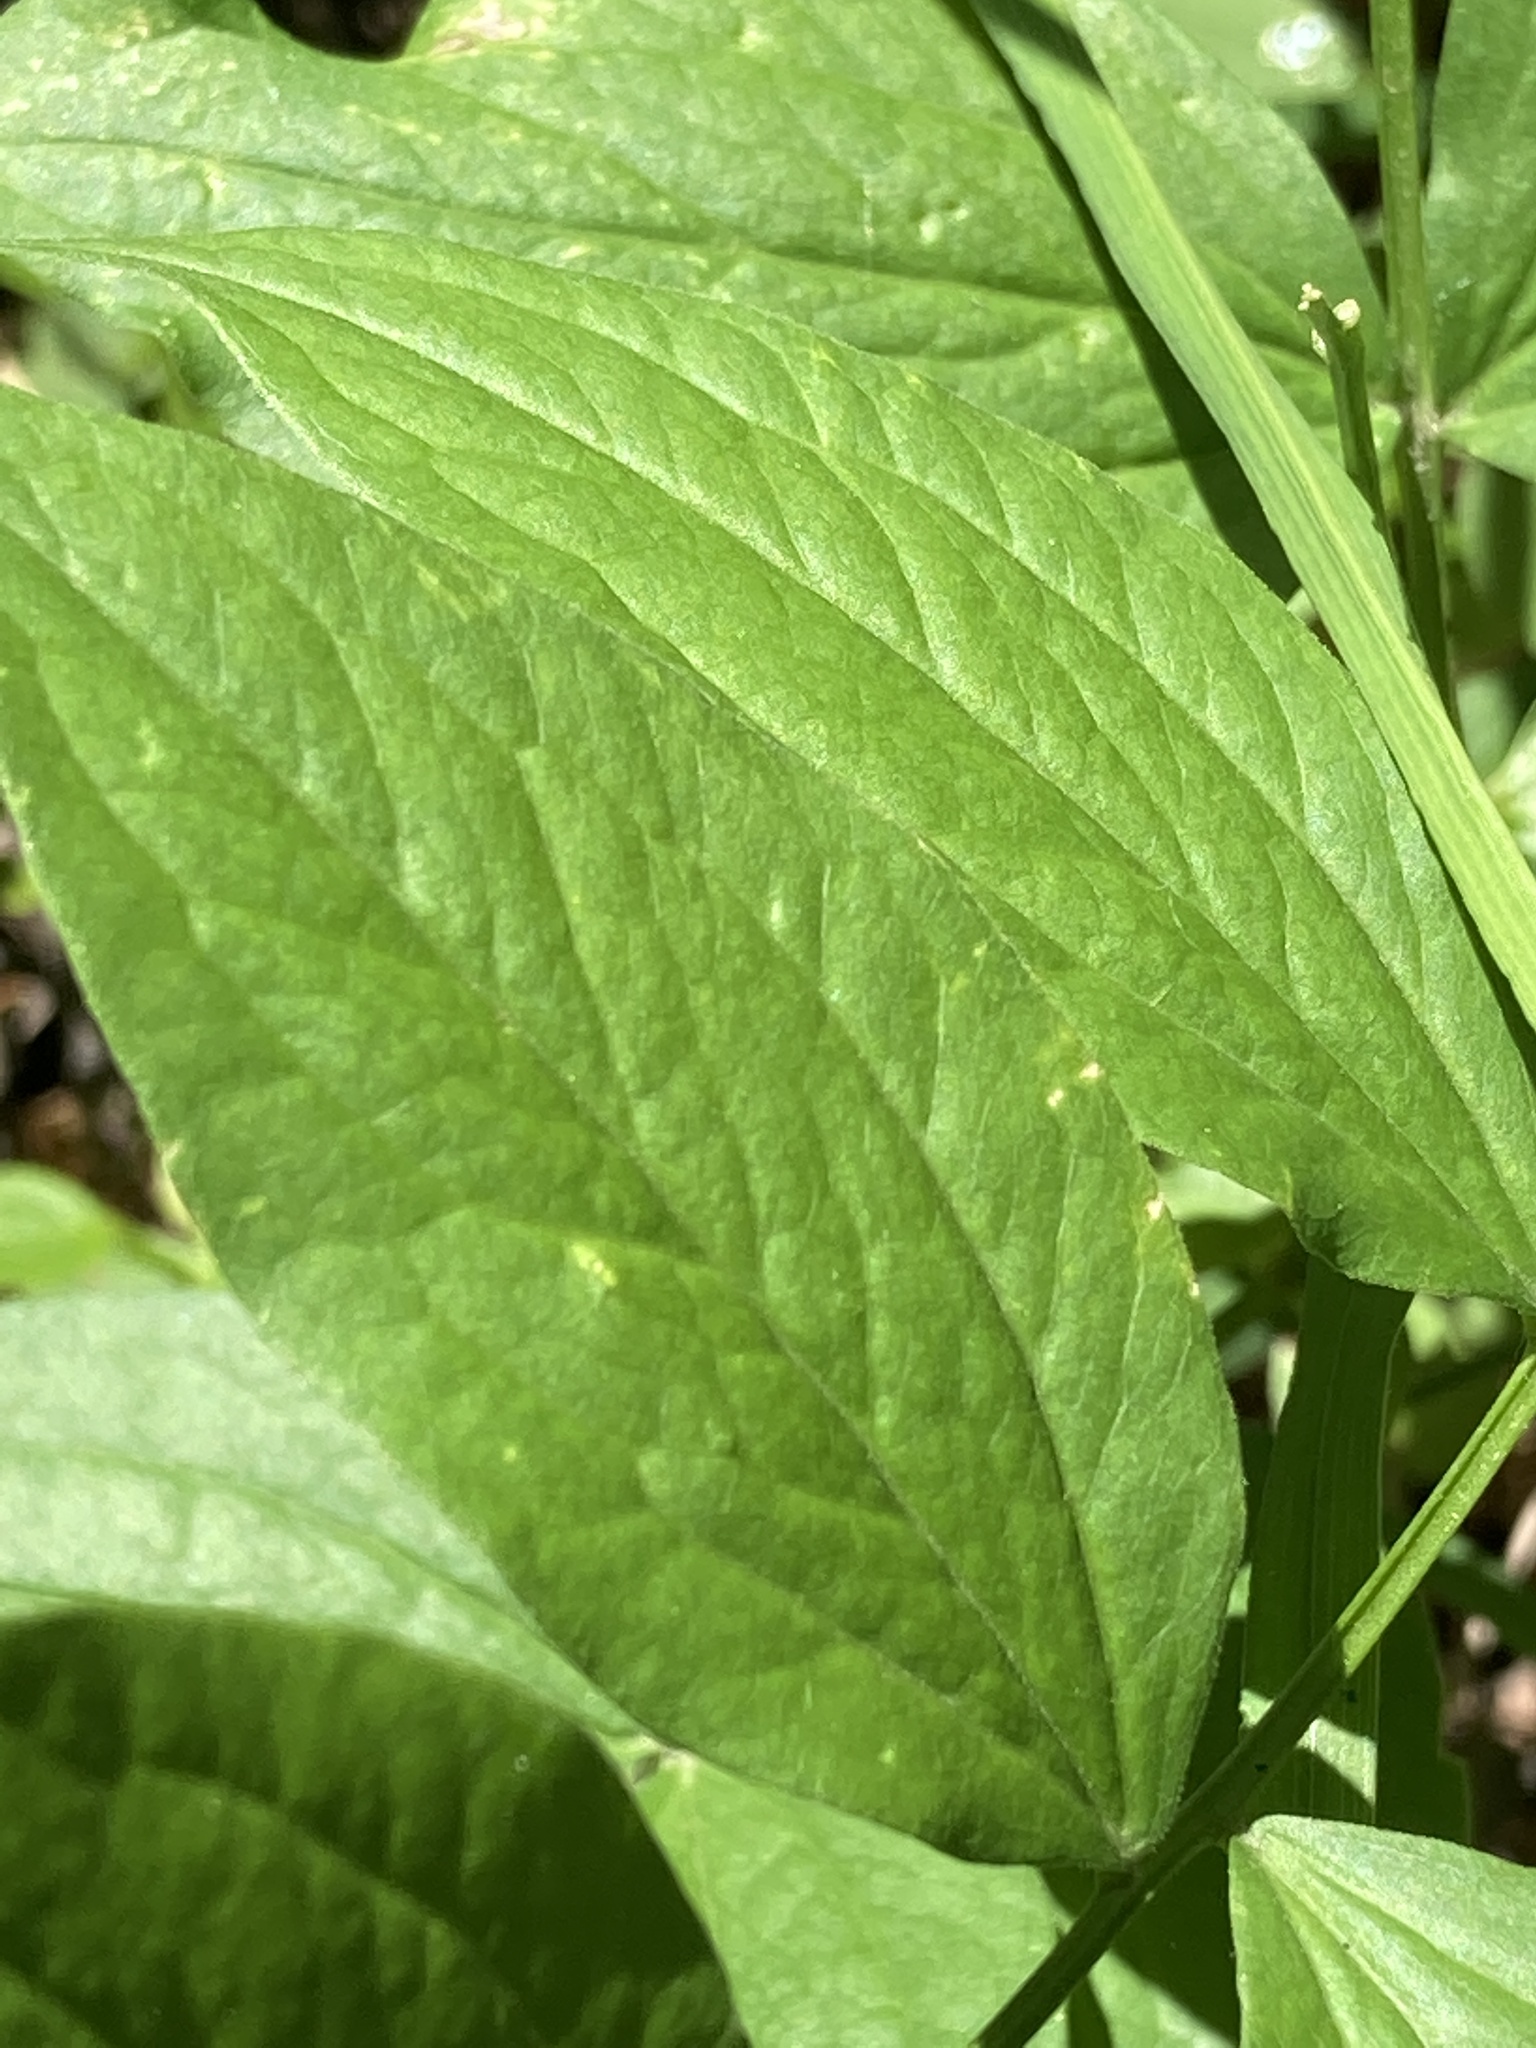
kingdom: Plantae
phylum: Tracheophyta
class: Magnoliopsida
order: Fabales
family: Fabaceae
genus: Lathyrus
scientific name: Lathyrus vernus
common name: Spring pea
